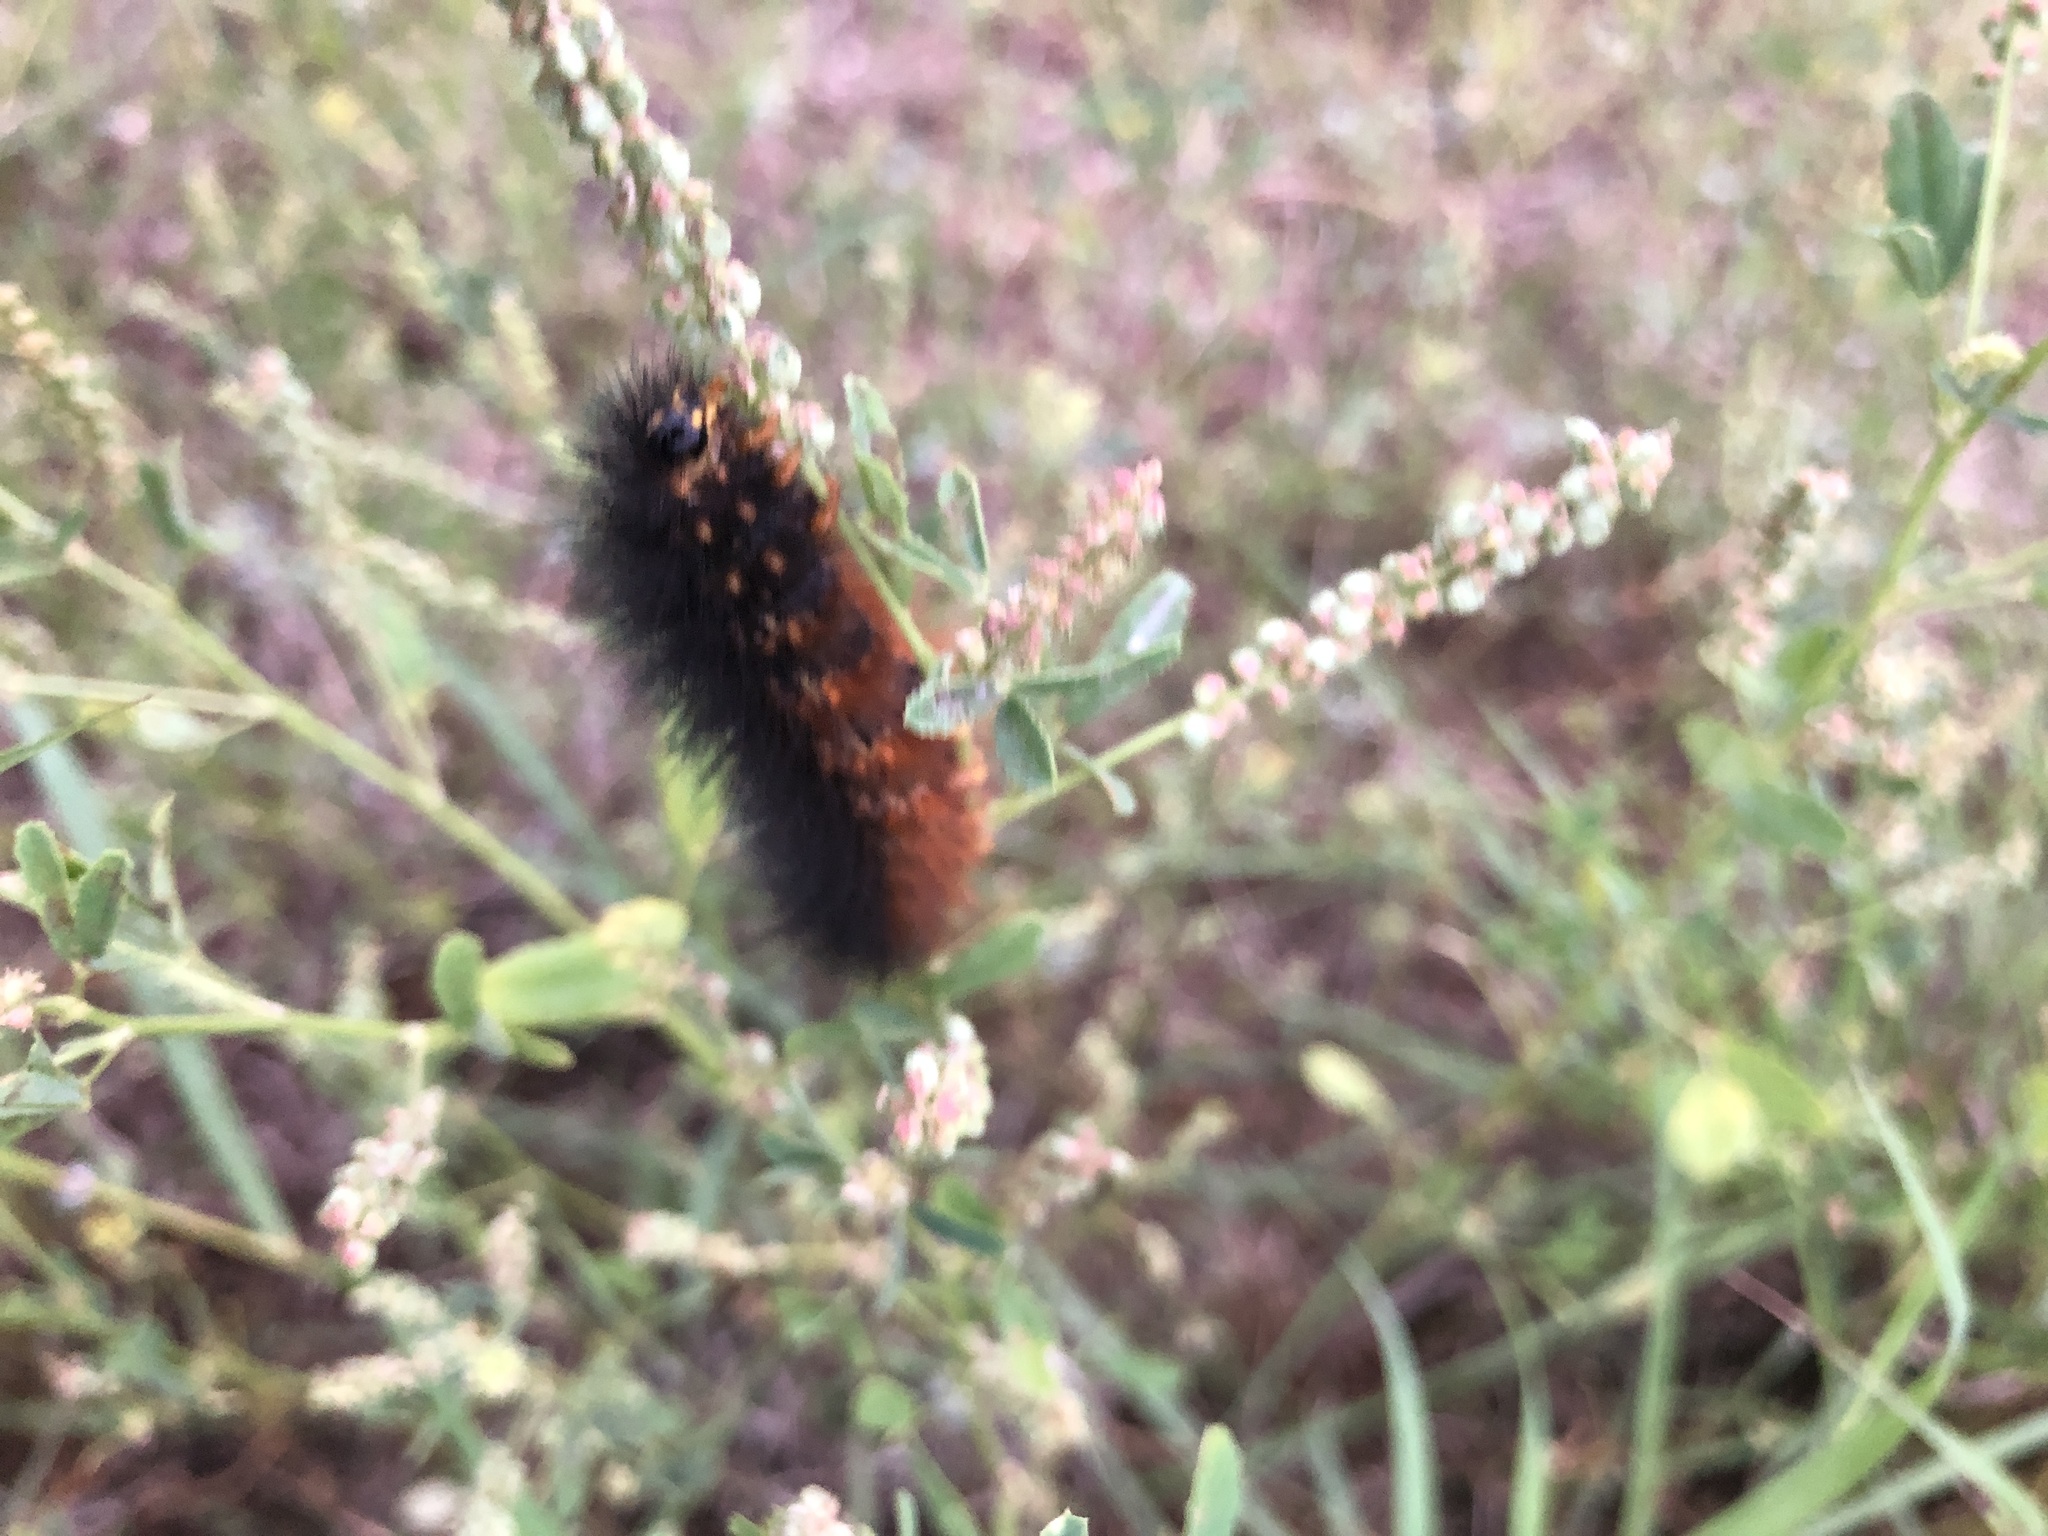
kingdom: Animalia
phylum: Arthropoda
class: Insecta
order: Lepidoptera
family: Erebidae
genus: Estigmene
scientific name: Estigmene acrea
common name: Salt marsh moth
